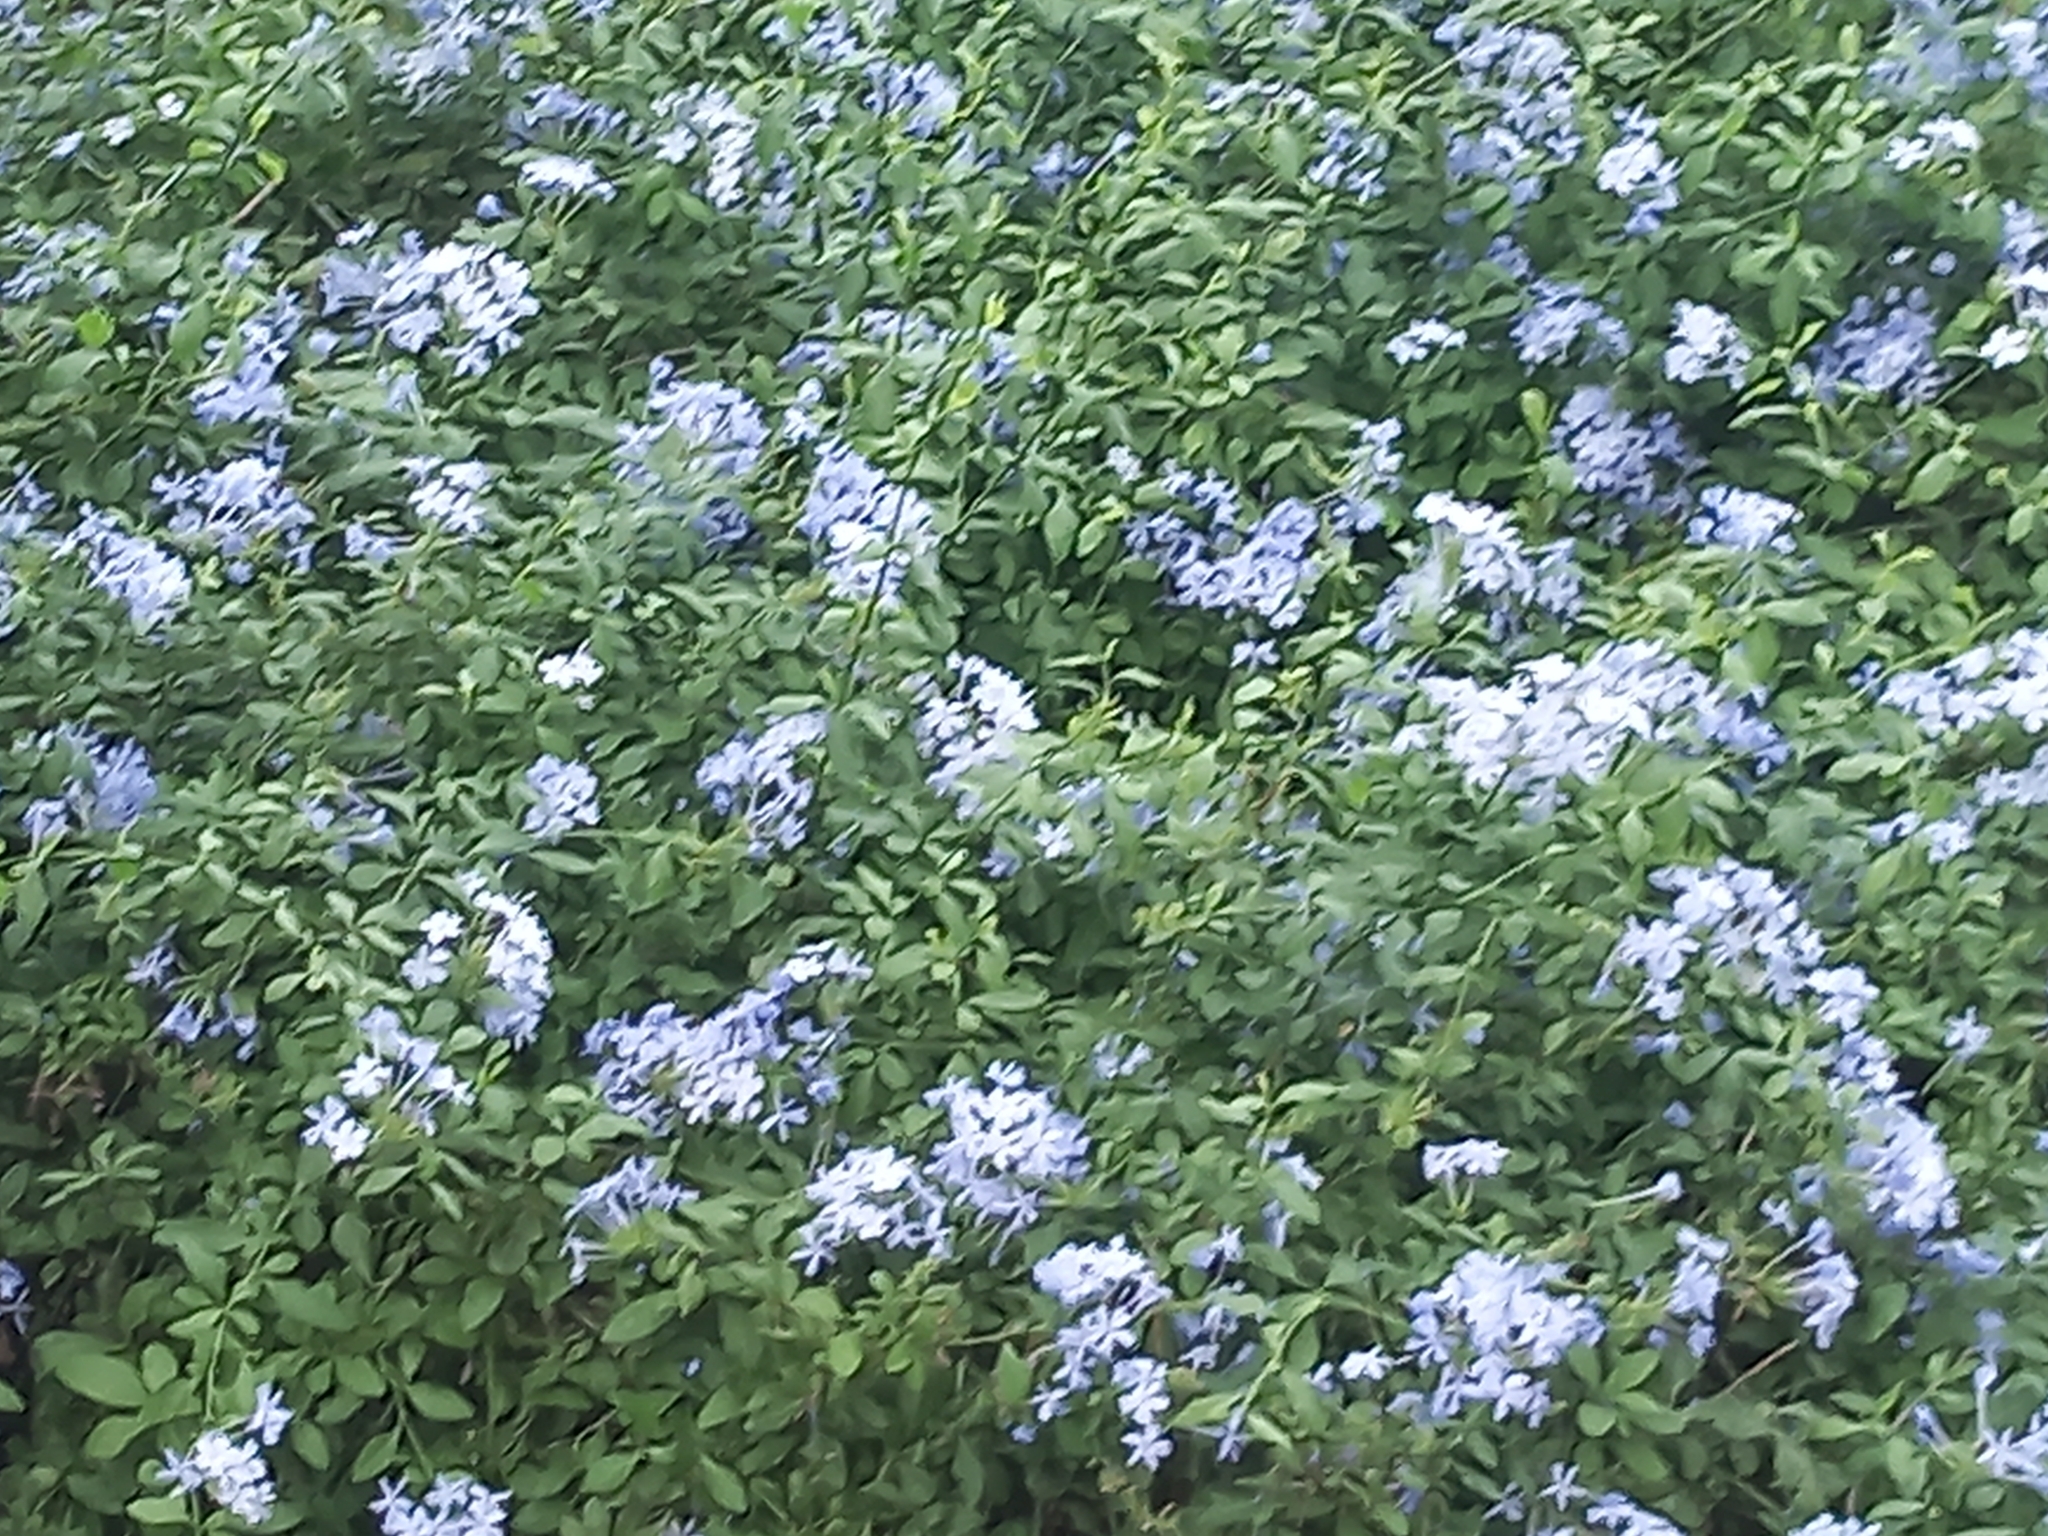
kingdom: Plantae
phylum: Tracheophyta
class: Magnoliopsida
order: Caryophyllales
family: Plumbaginaceae
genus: Plumbago
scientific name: Plumbago auriculata
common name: Cape leadwort
